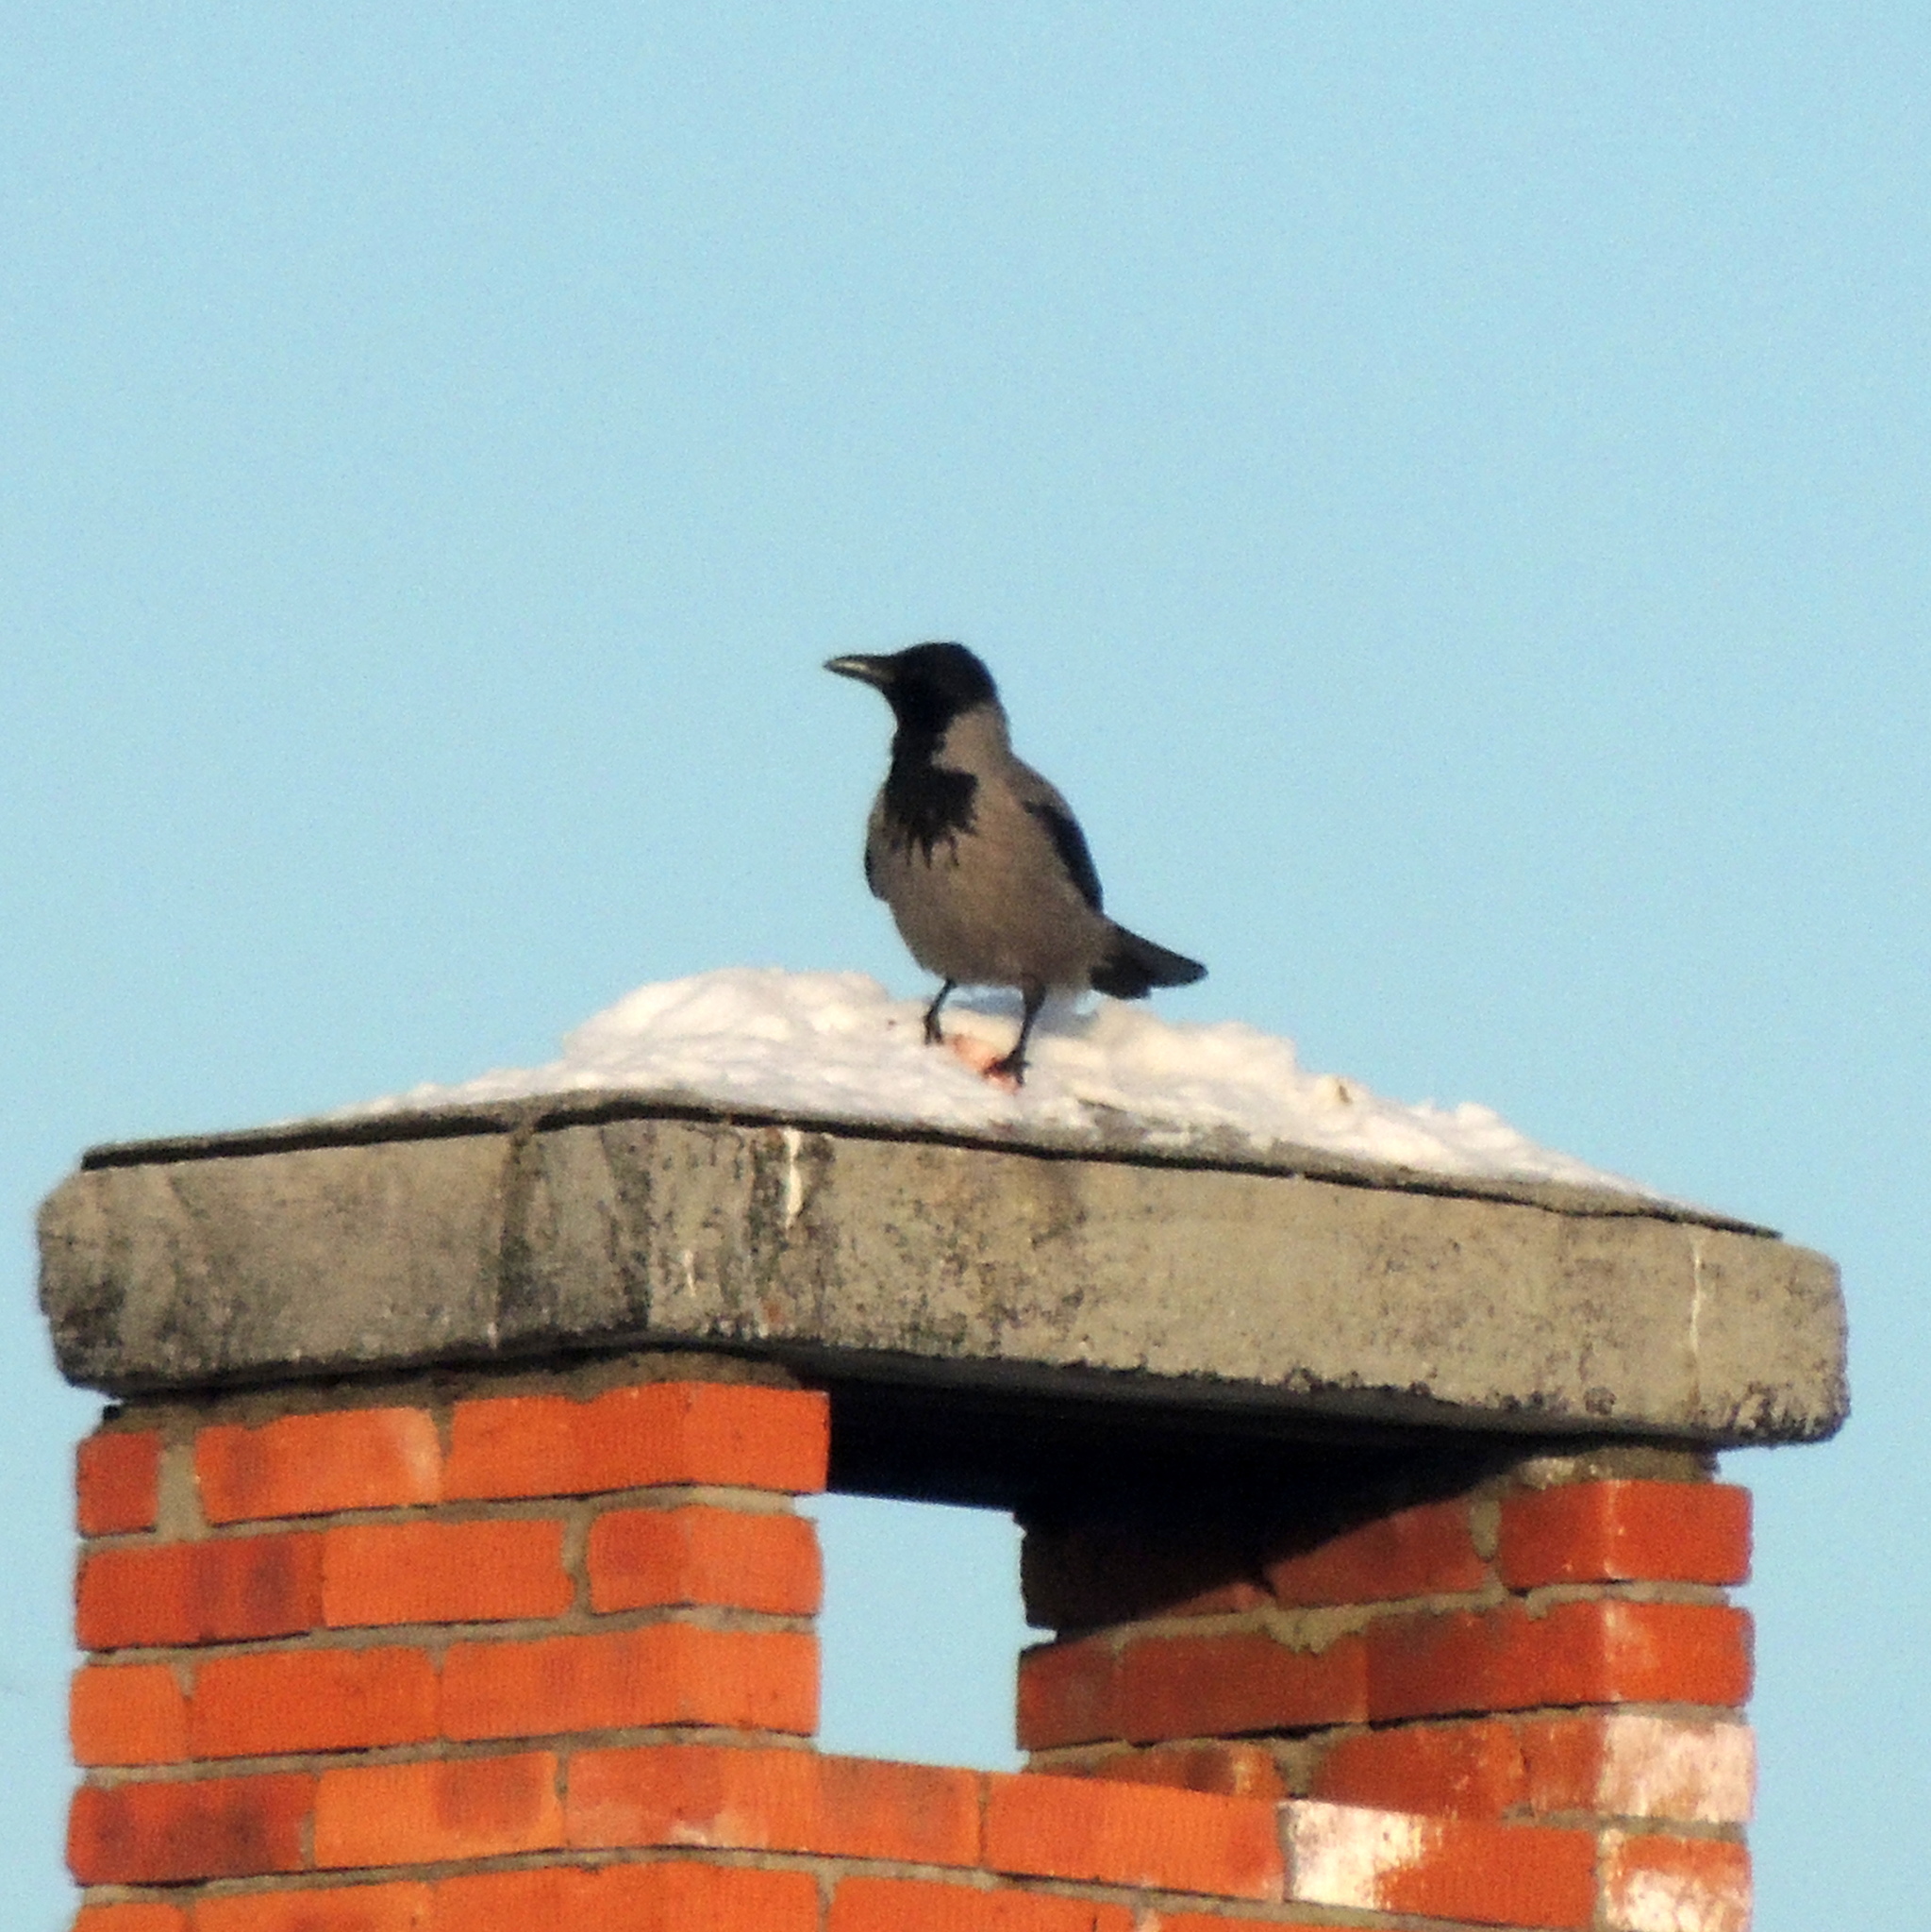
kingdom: Animalia
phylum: Chordata
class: Aves
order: Passeriformes
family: Corvidae
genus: Corvus
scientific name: Corvus cornix
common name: Hooded crow
